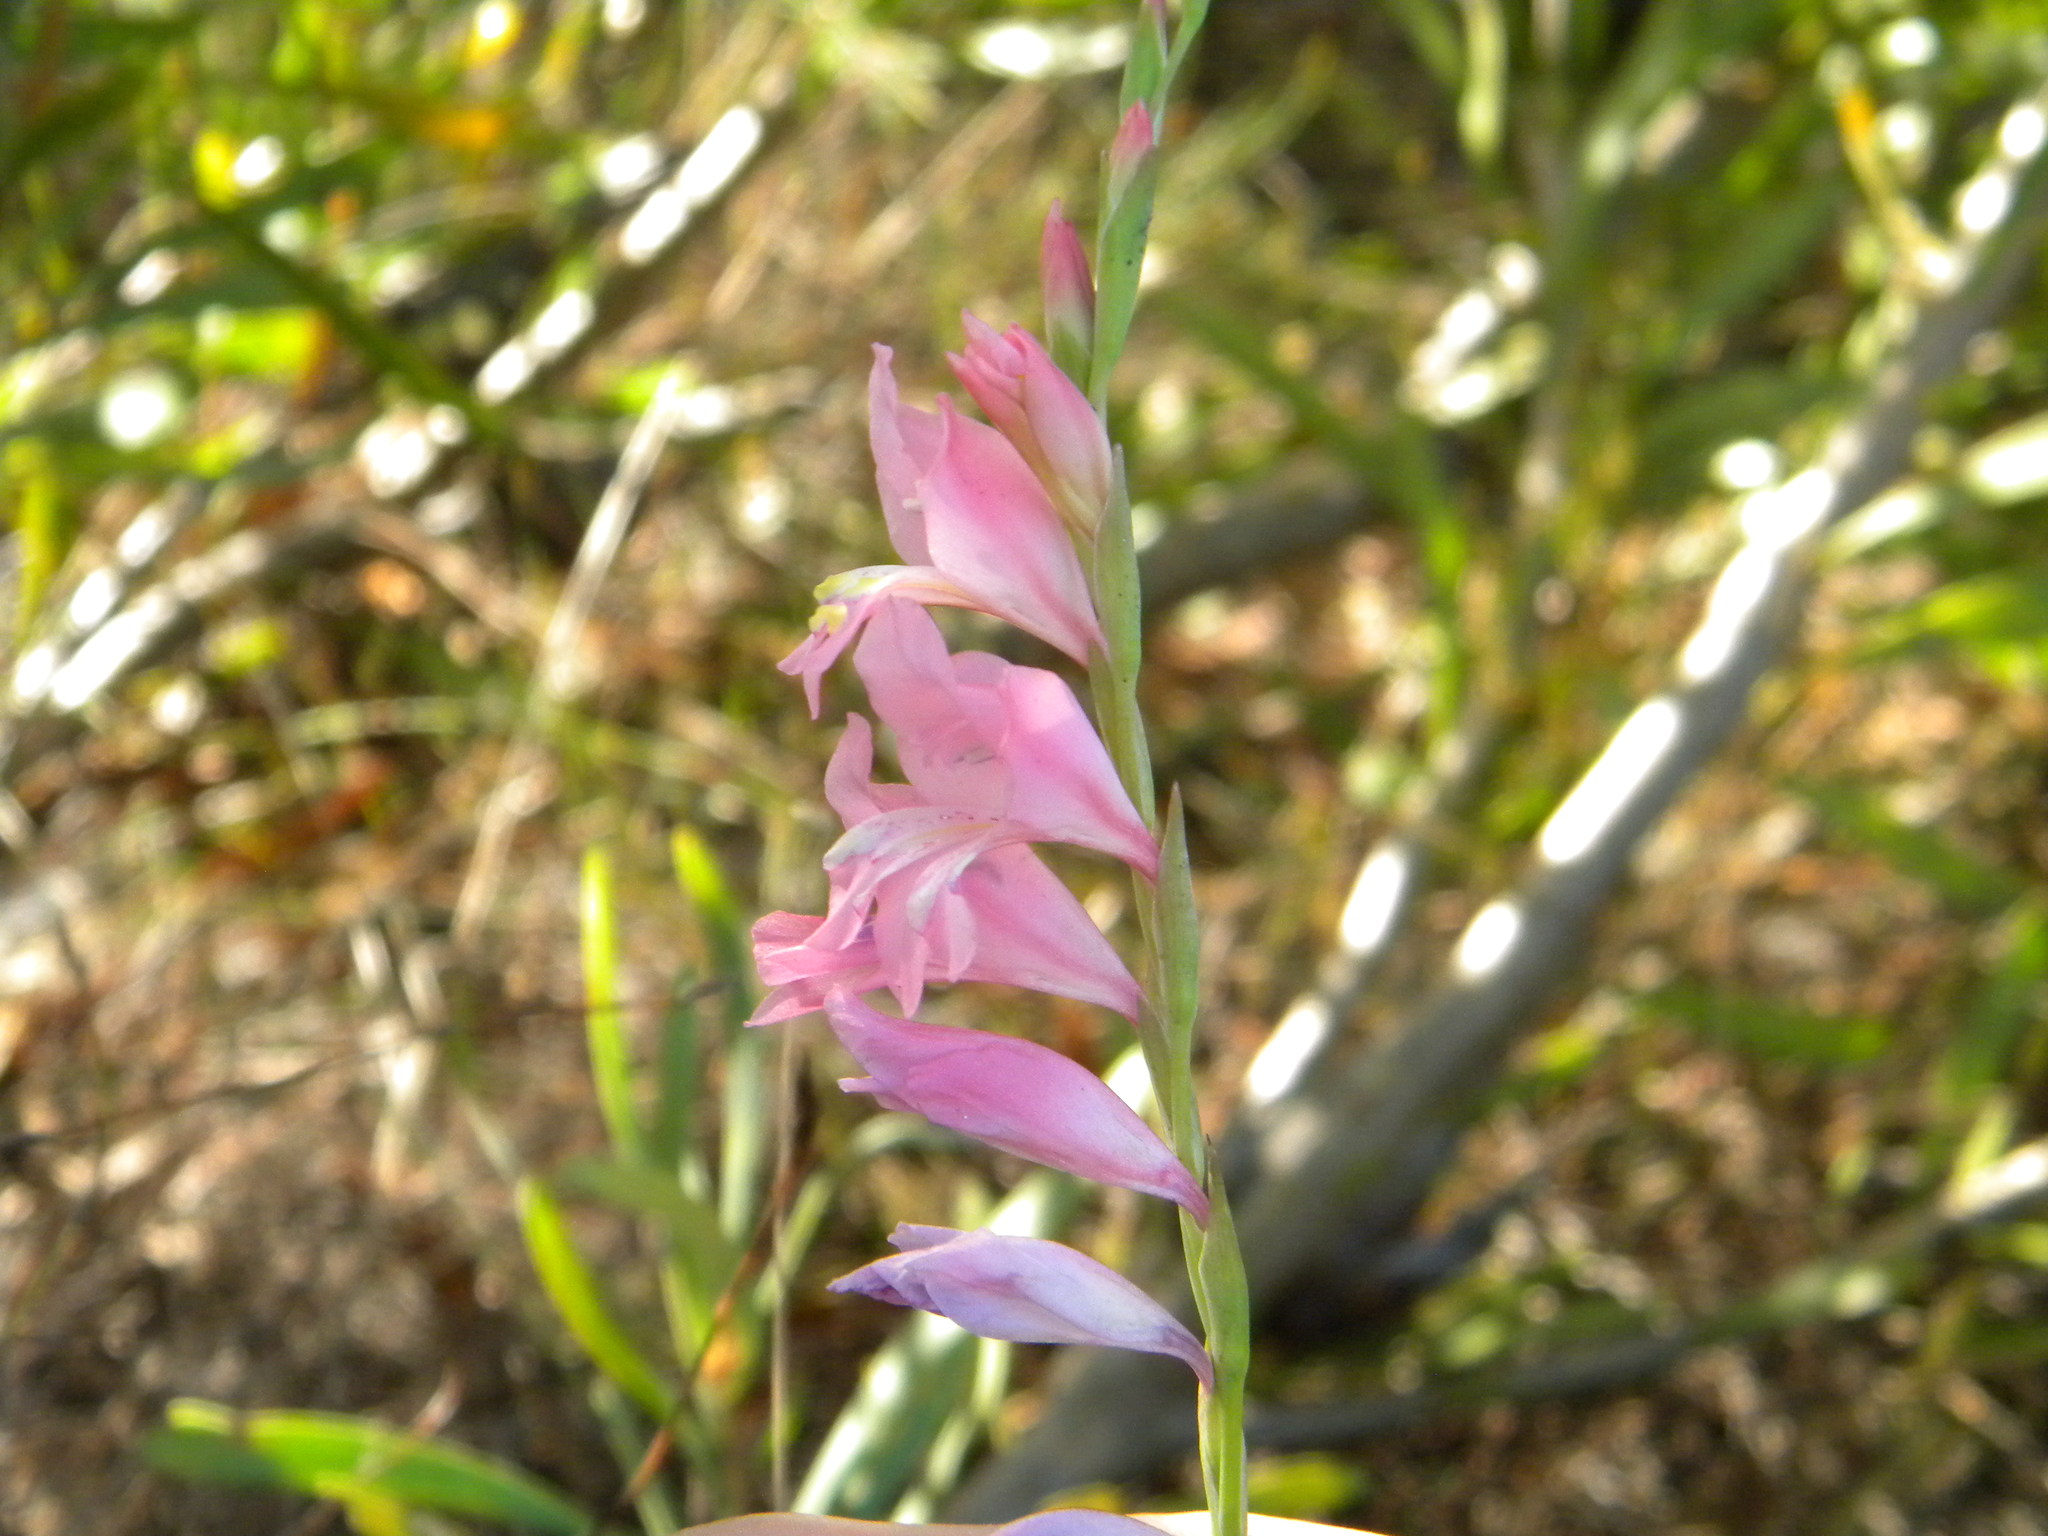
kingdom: Plantae
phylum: Tracheophyta
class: Liliopsida
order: Asparagales
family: Iridaceae
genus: Gladiolus
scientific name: Gladiolus brevifolius
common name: March pypie
